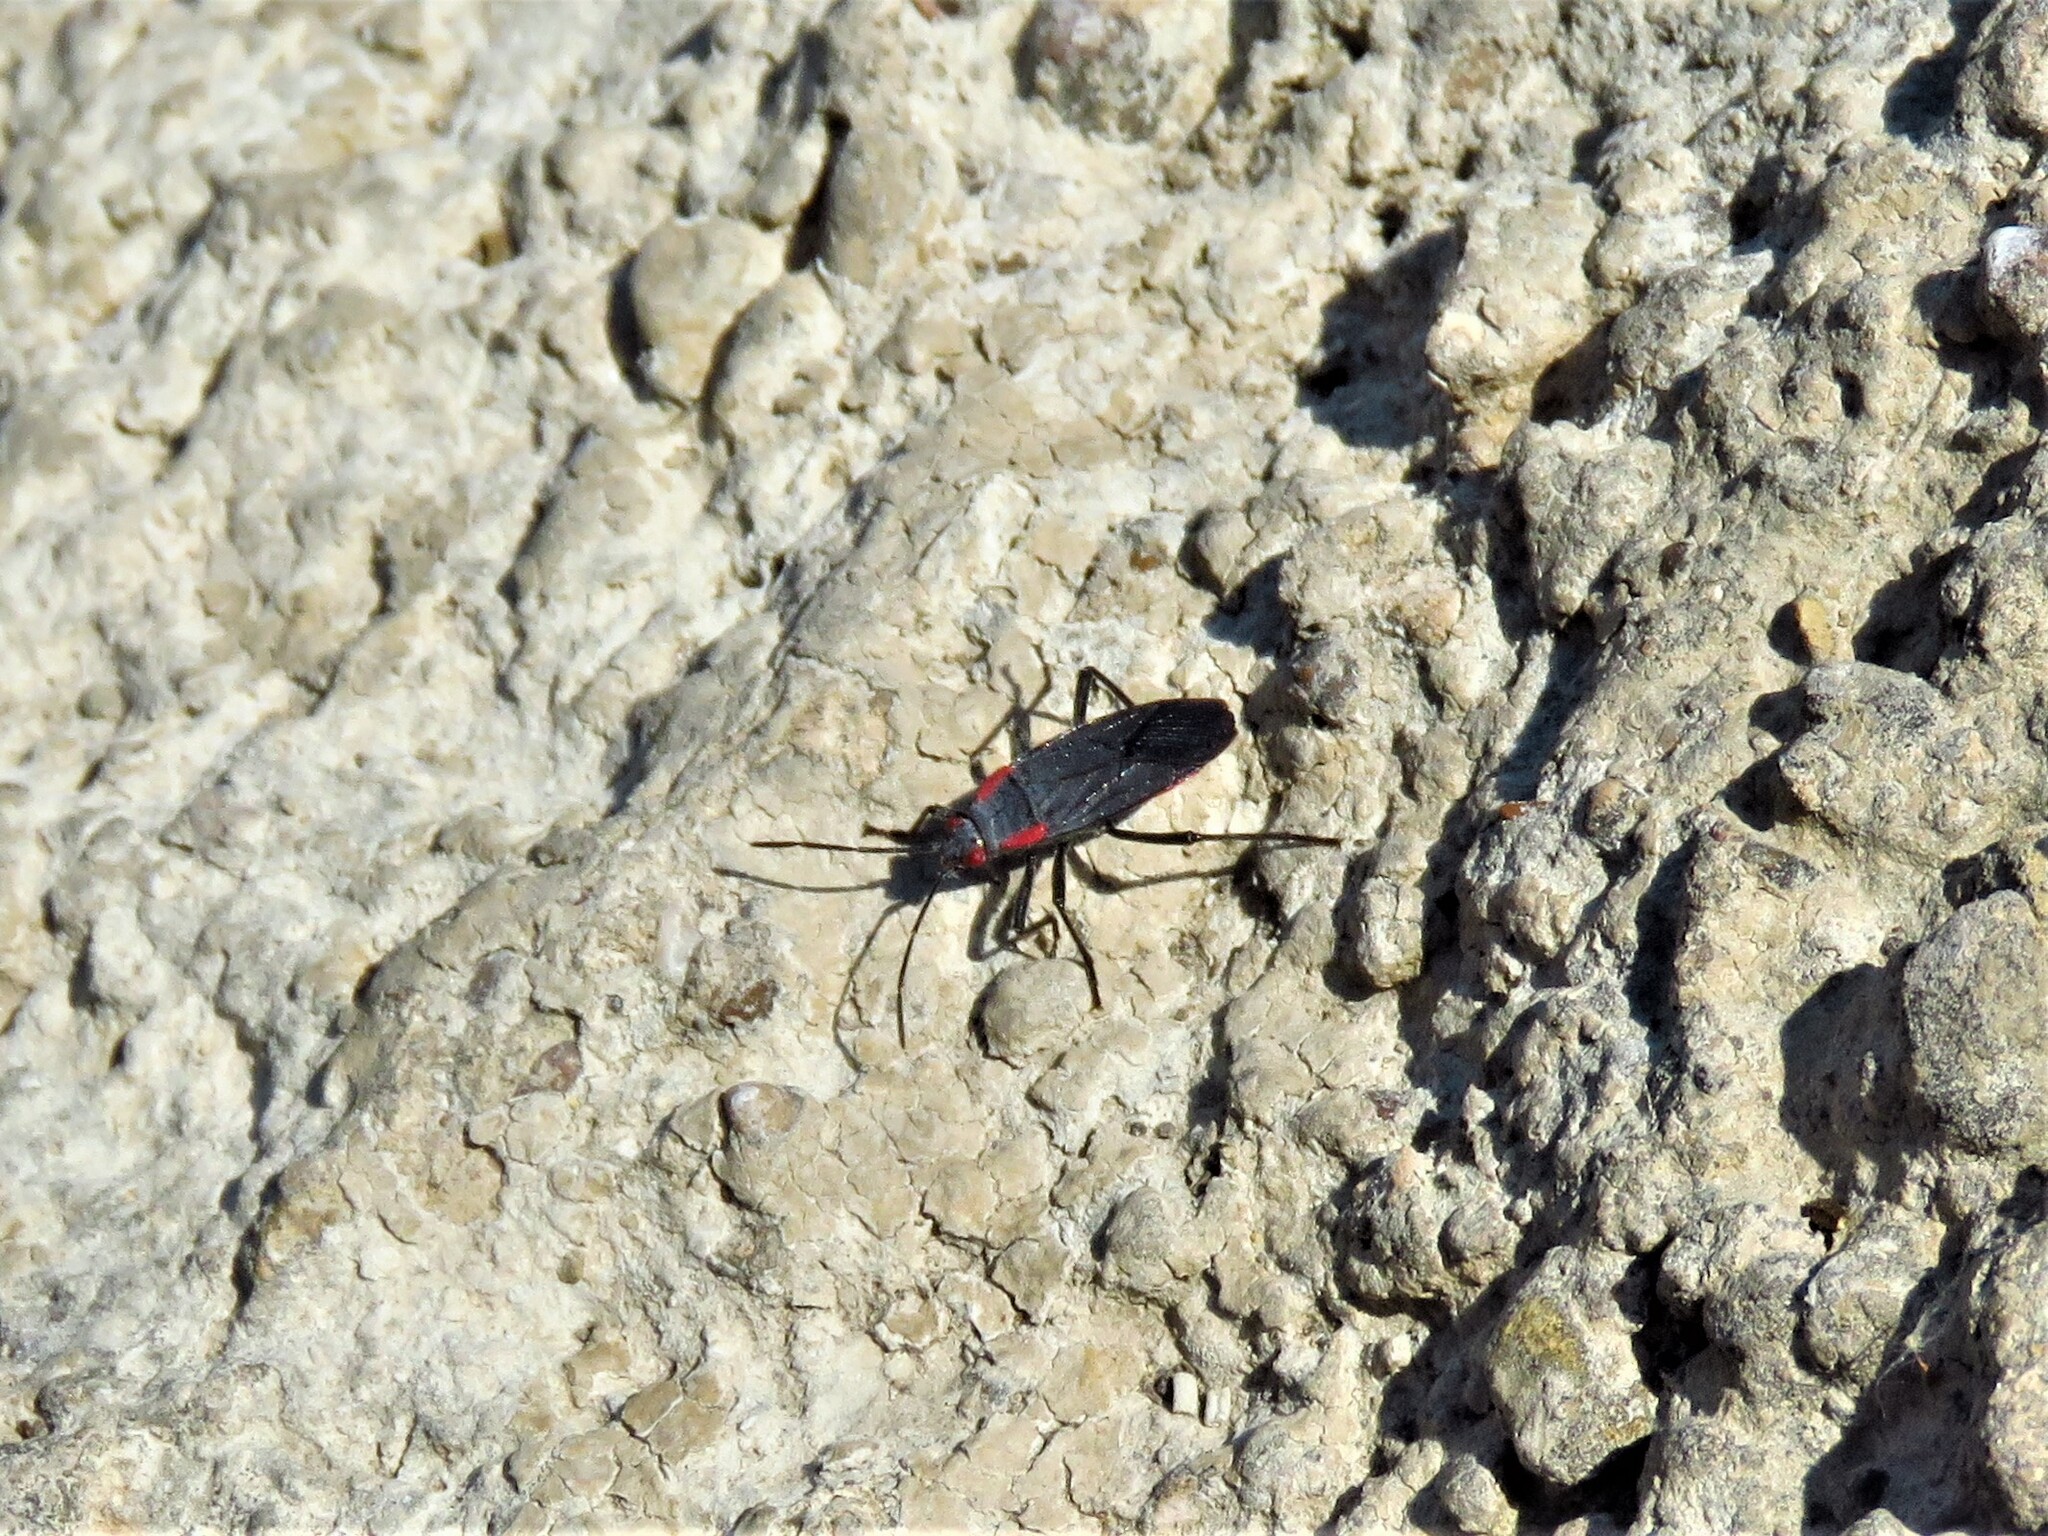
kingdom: Animalia
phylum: Arthropoda
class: Insecta
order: Hemiptera
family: Rhopalidae
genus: Jadera
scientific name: Jadera haematoloma
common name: Red-shouldered bug
